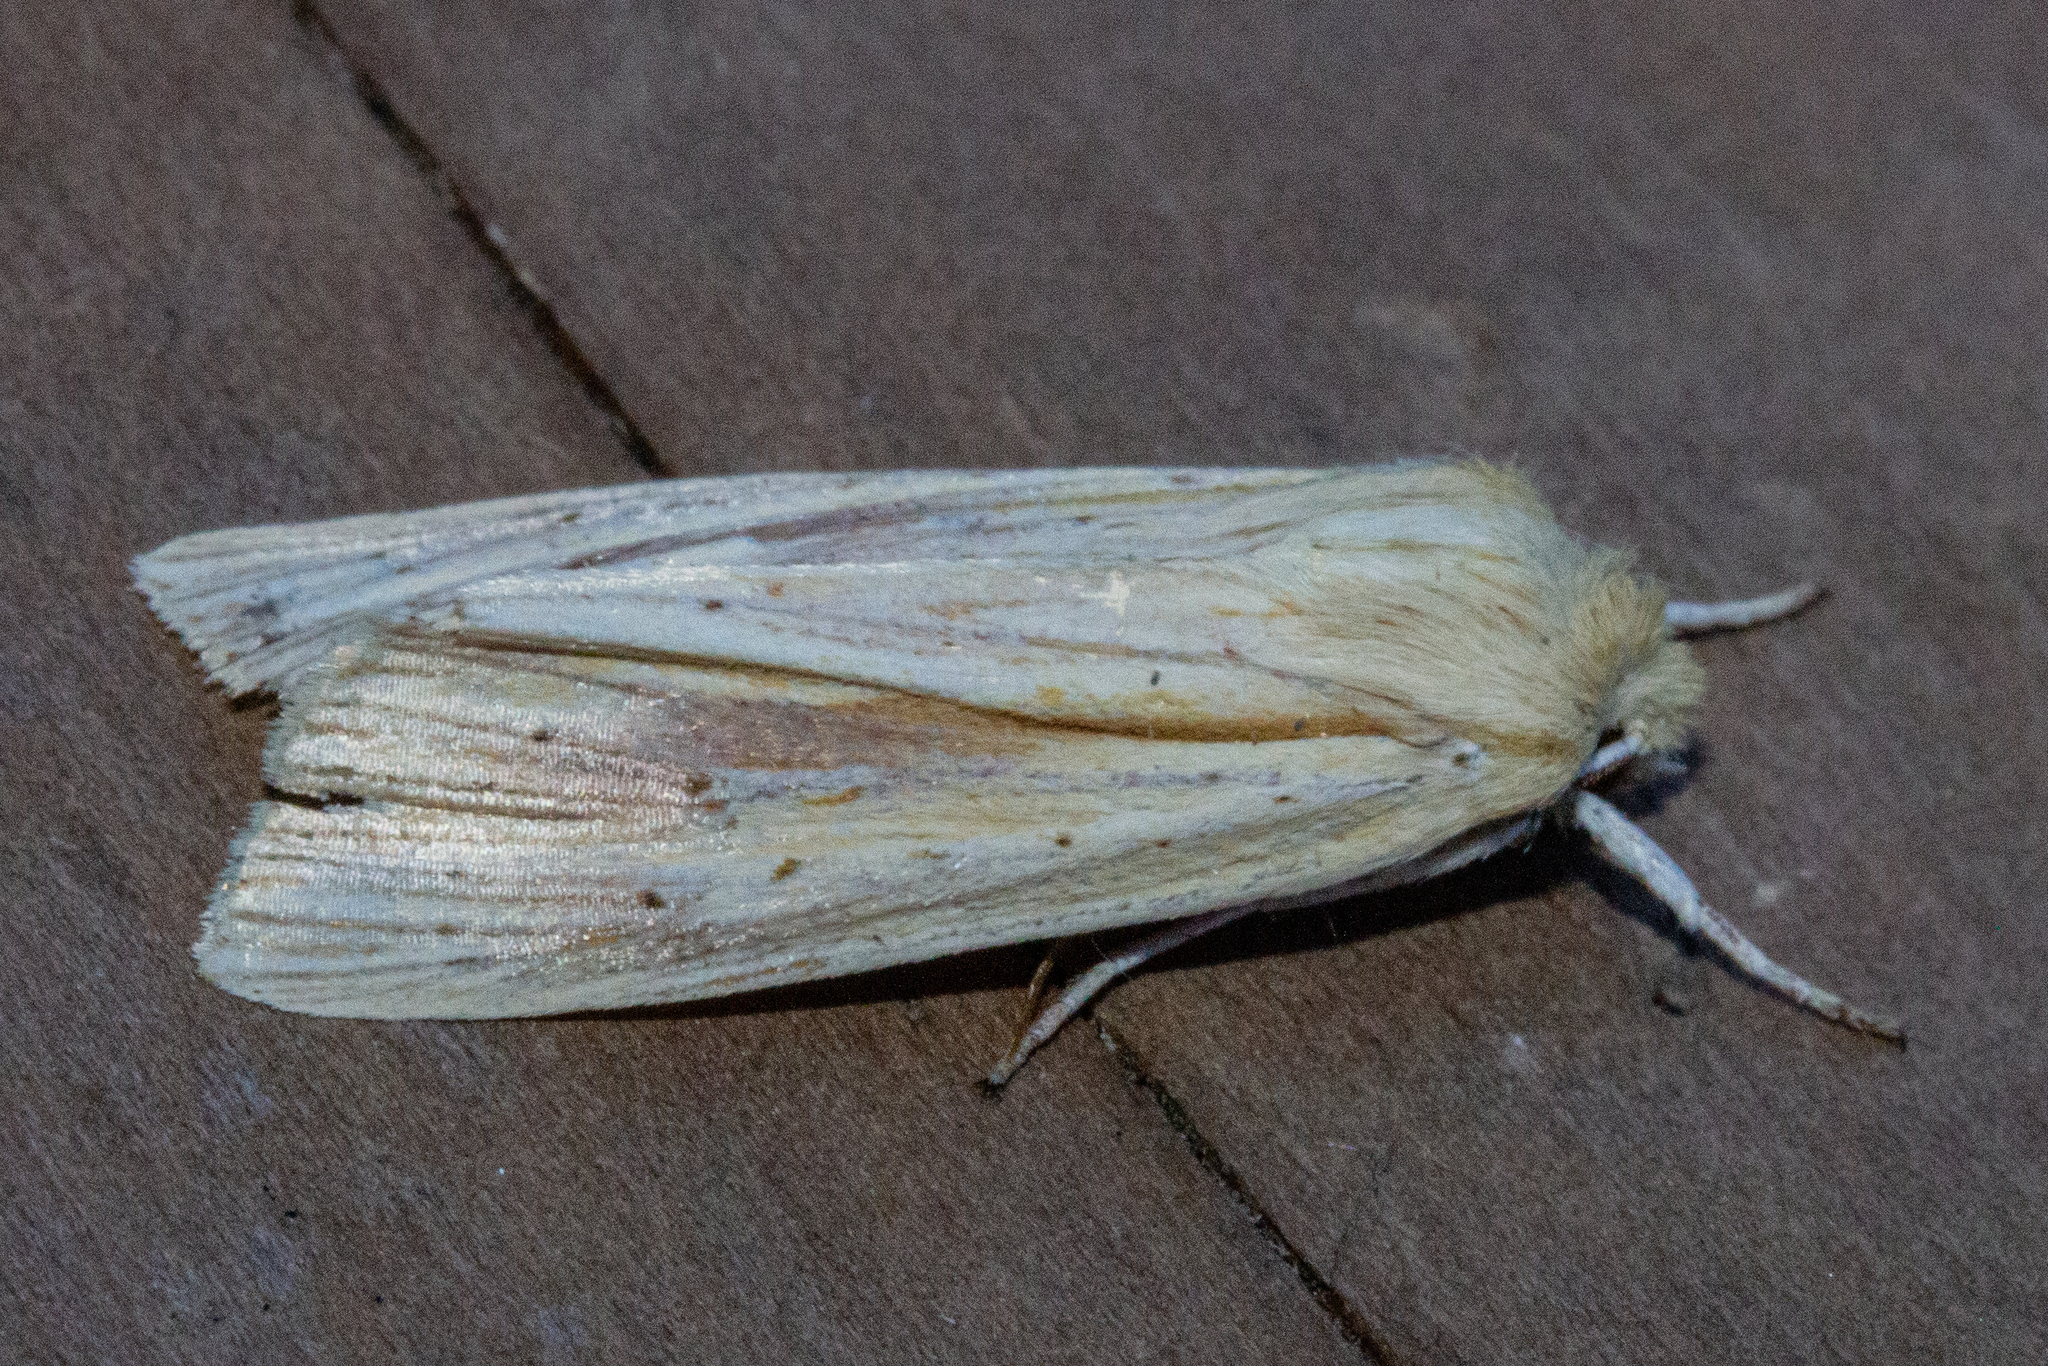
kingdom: Animalia
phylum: Arthropoda
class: Insecta
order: Lepidoptera
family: Noctuidae
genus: Ichneutica
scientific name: Ichneutica semivittata
